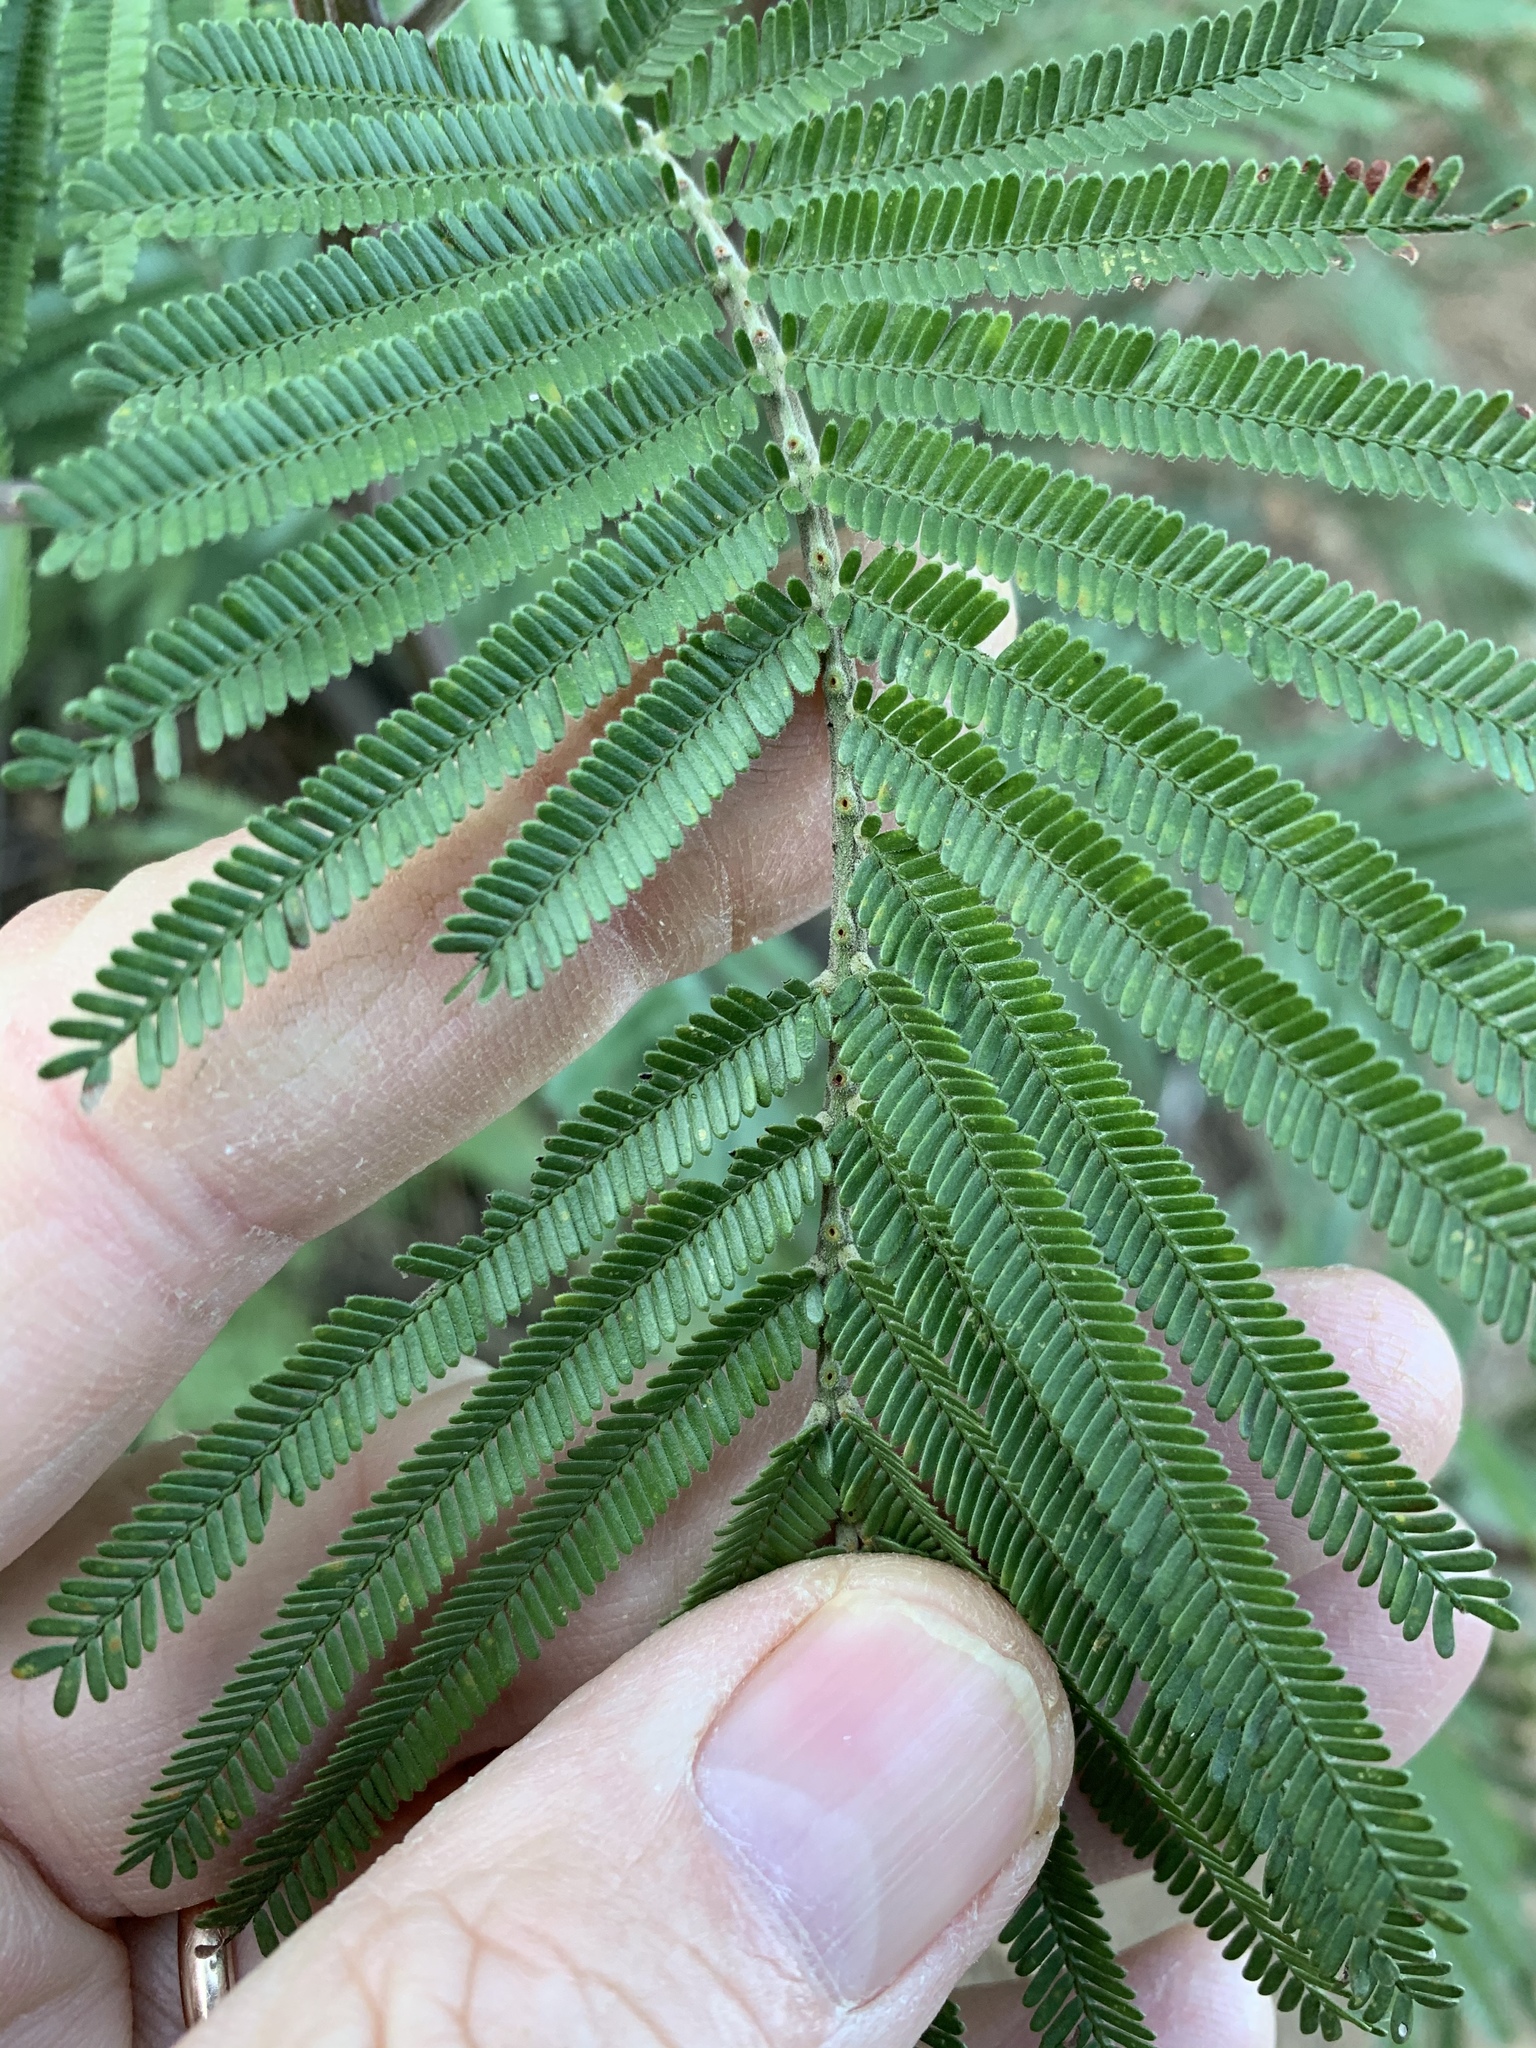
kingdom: Plantae
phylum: Tracheophyta
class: Magnoliopsida
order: Fabales
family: Fabaceae
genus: Acacia
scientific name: Acacia mearnsii
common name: Black wattle
